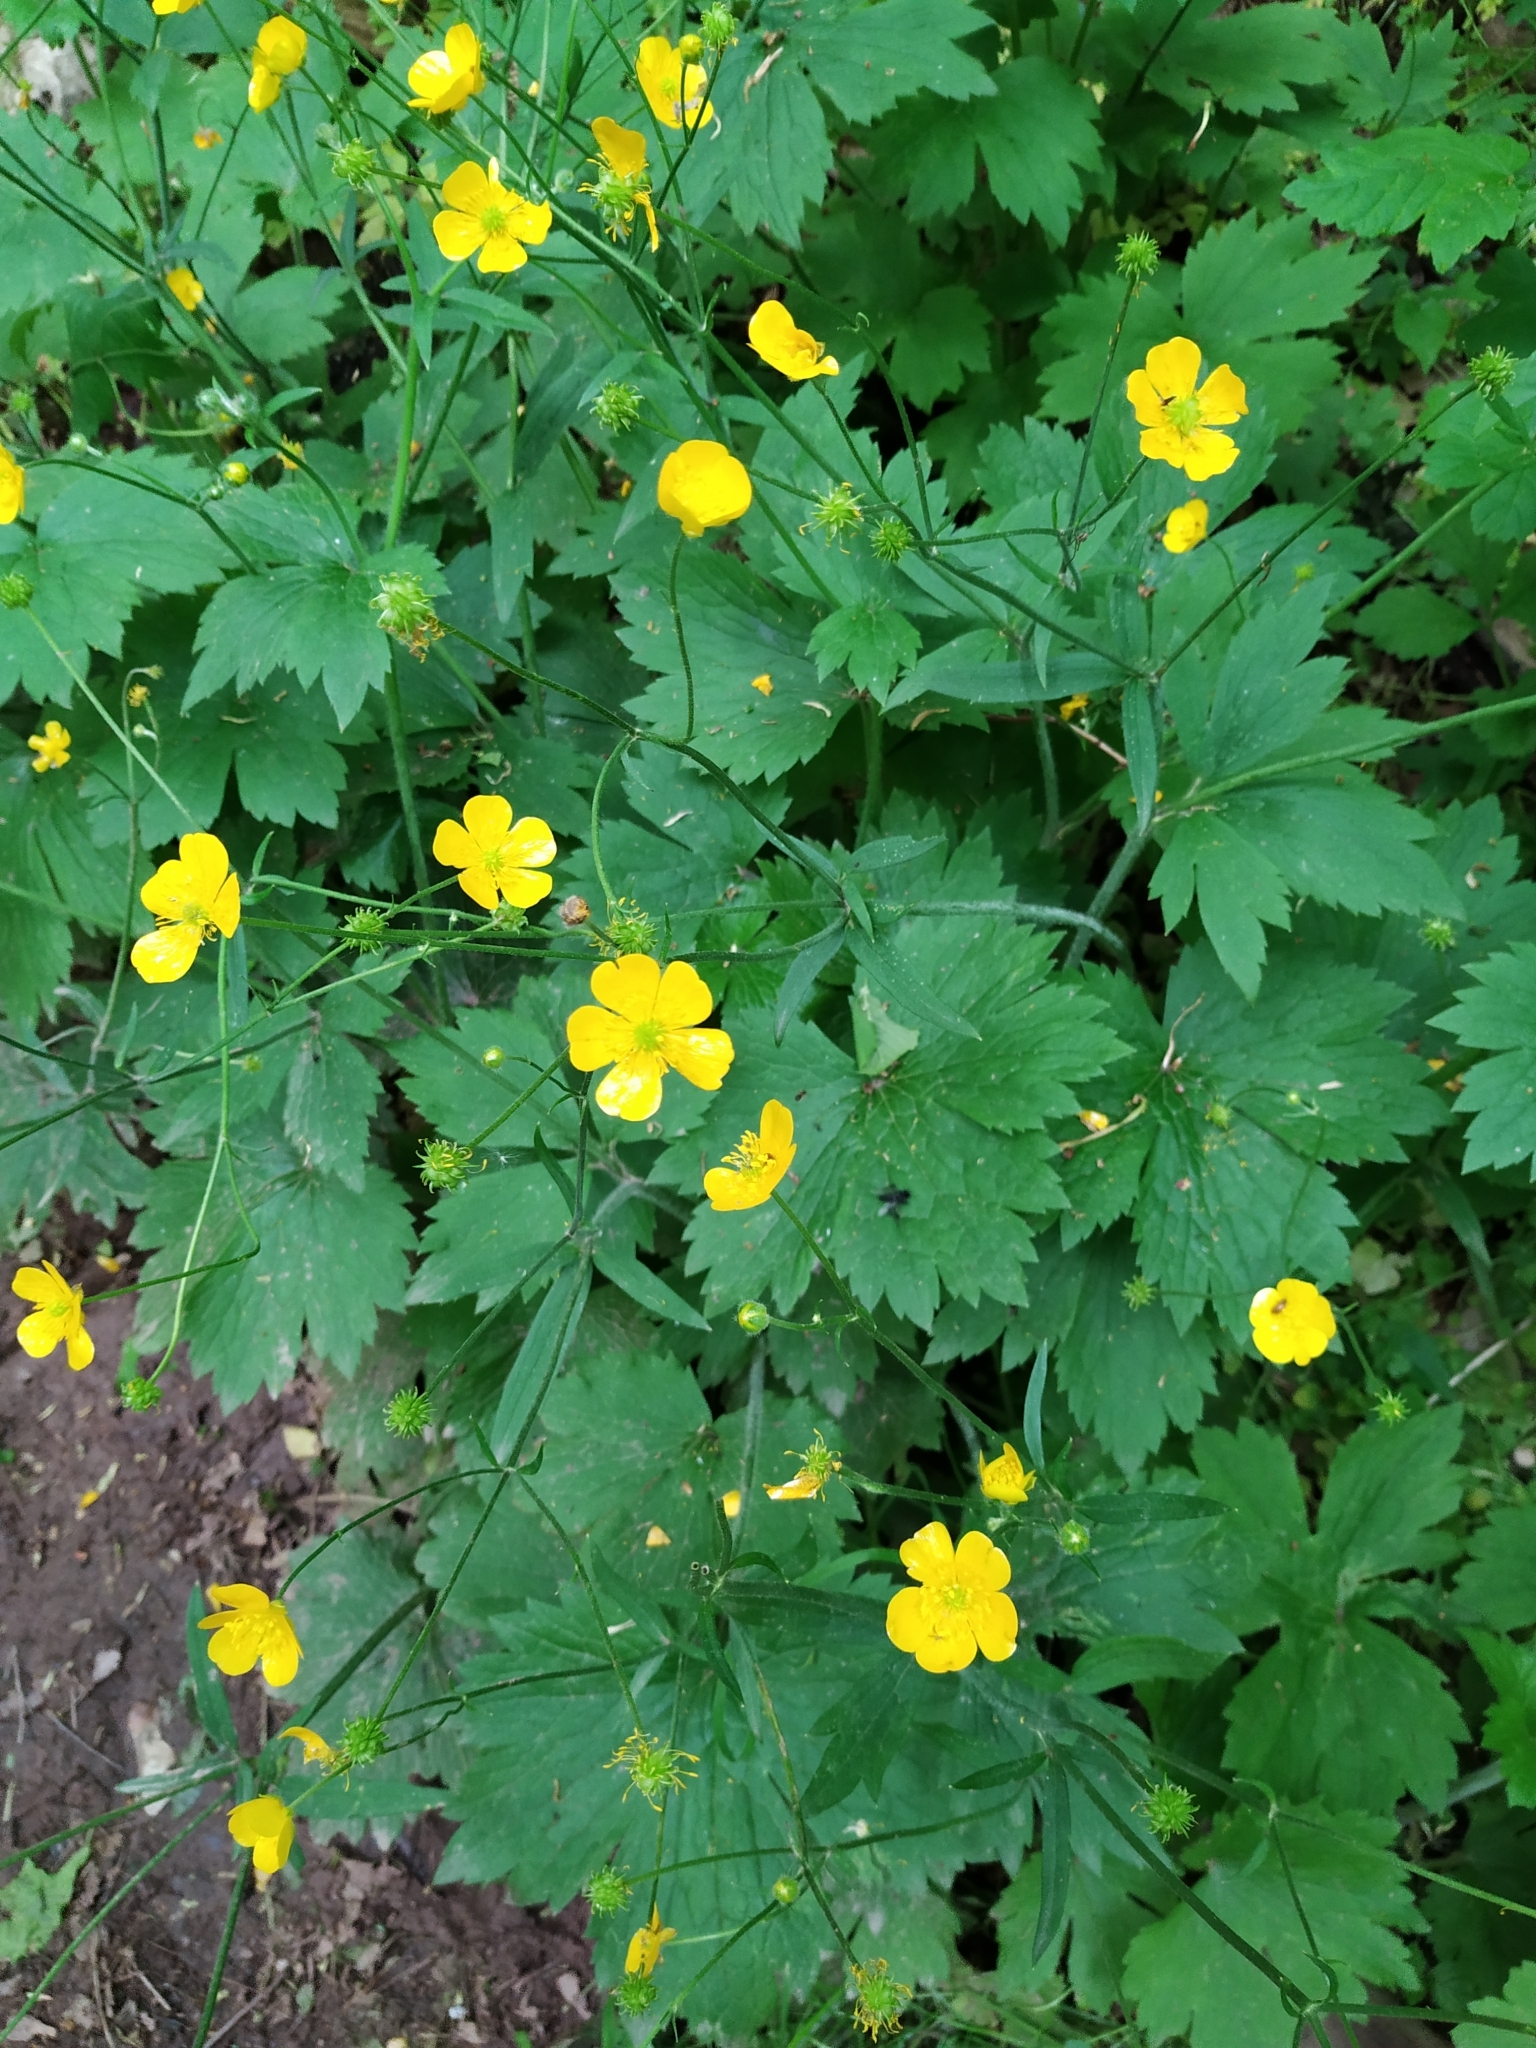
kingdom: Plantae
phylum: Tracheophyta
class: Magnoliopsida
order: Ranunculales
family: Ranunculaceae
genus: Ranunculus
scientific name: Ranunculus lanuginosus
